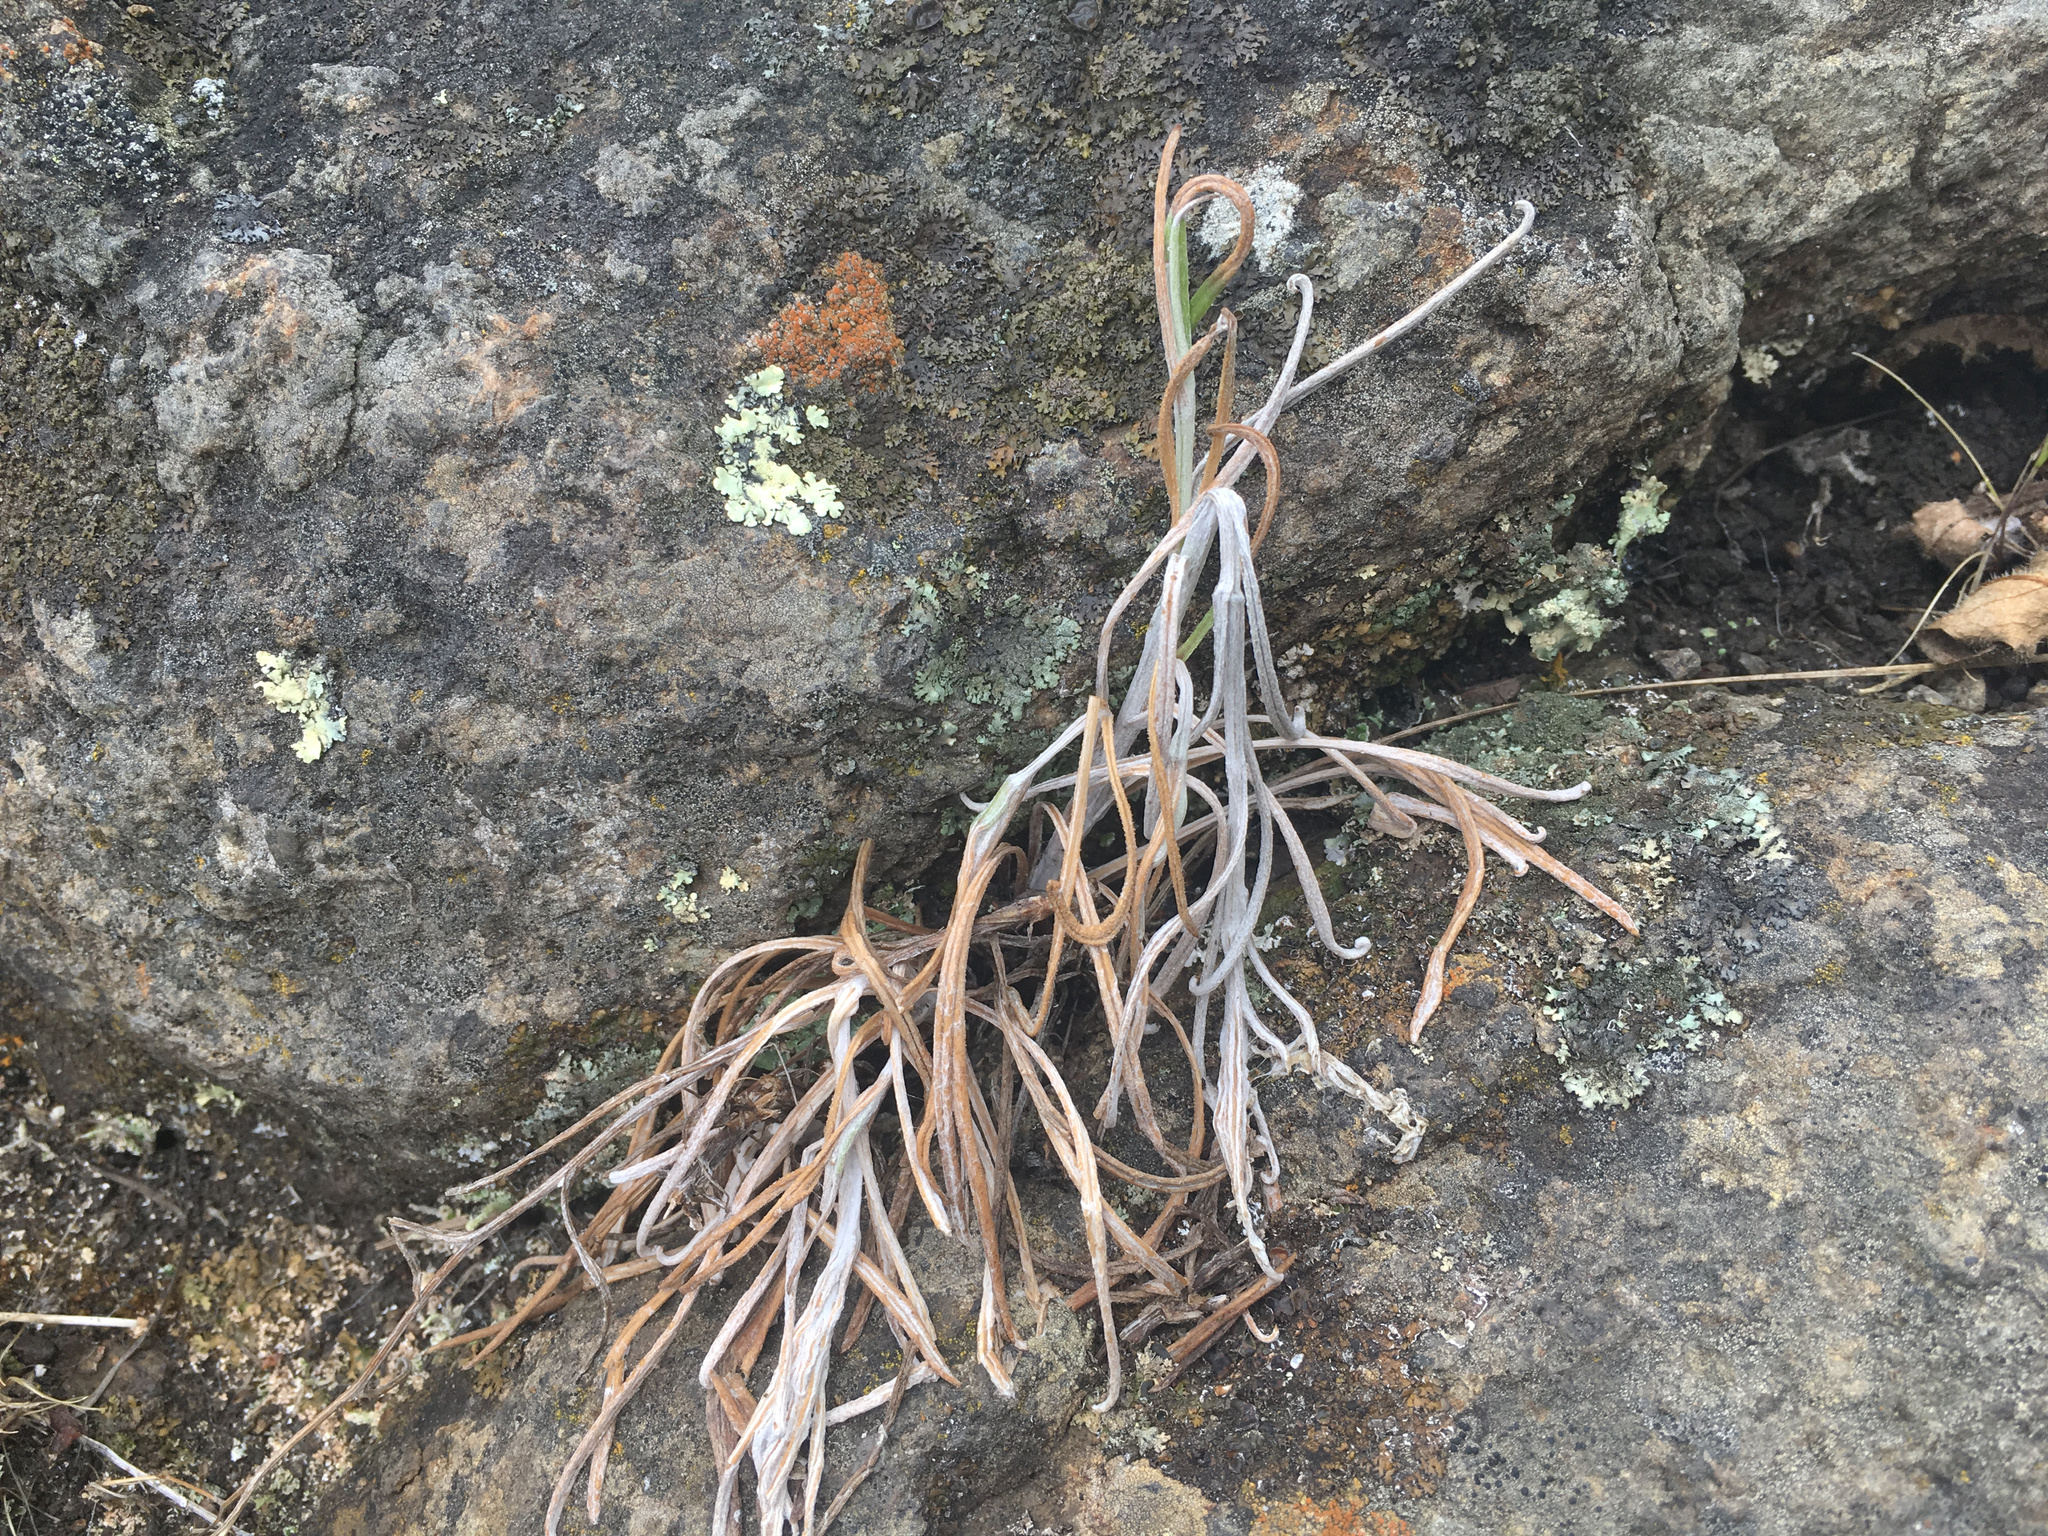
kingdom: Plantae
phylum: Tracheophyta
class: Magnoliopsida
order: Asterales
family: Asteraceae
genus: Senecio
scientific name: Senecio quadridentatus
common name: Cotton fireweed
